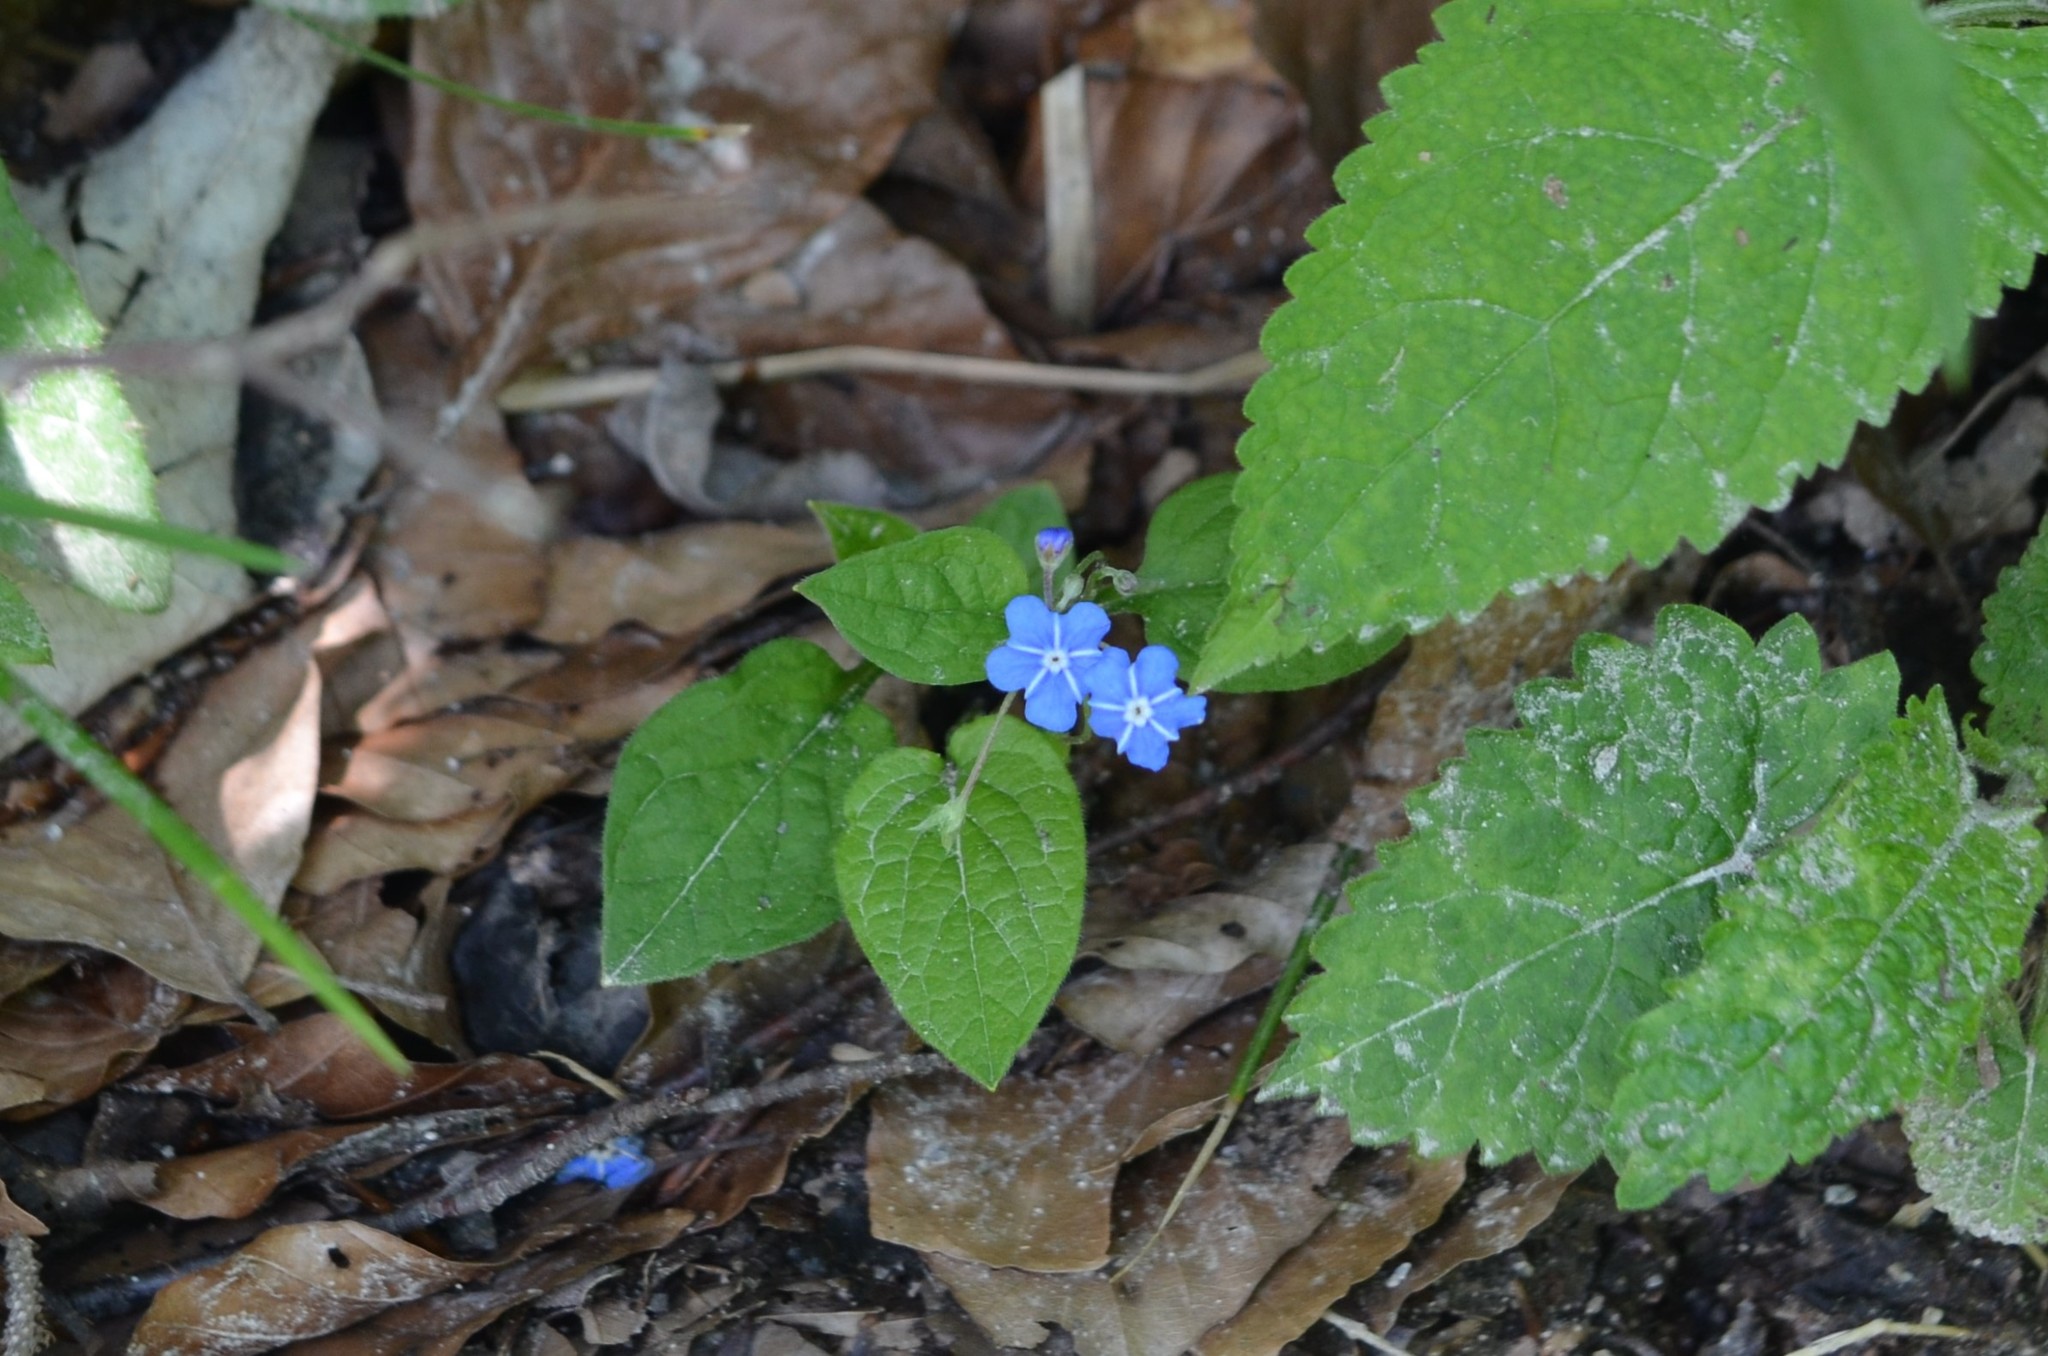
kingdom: Plantae
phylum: Tracheophyta
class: Magnoliopsida
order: Boraginales
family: Boraginaceae
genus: Omphalodes
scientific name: Omphalodes verna
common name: Blue-eyed-mary
